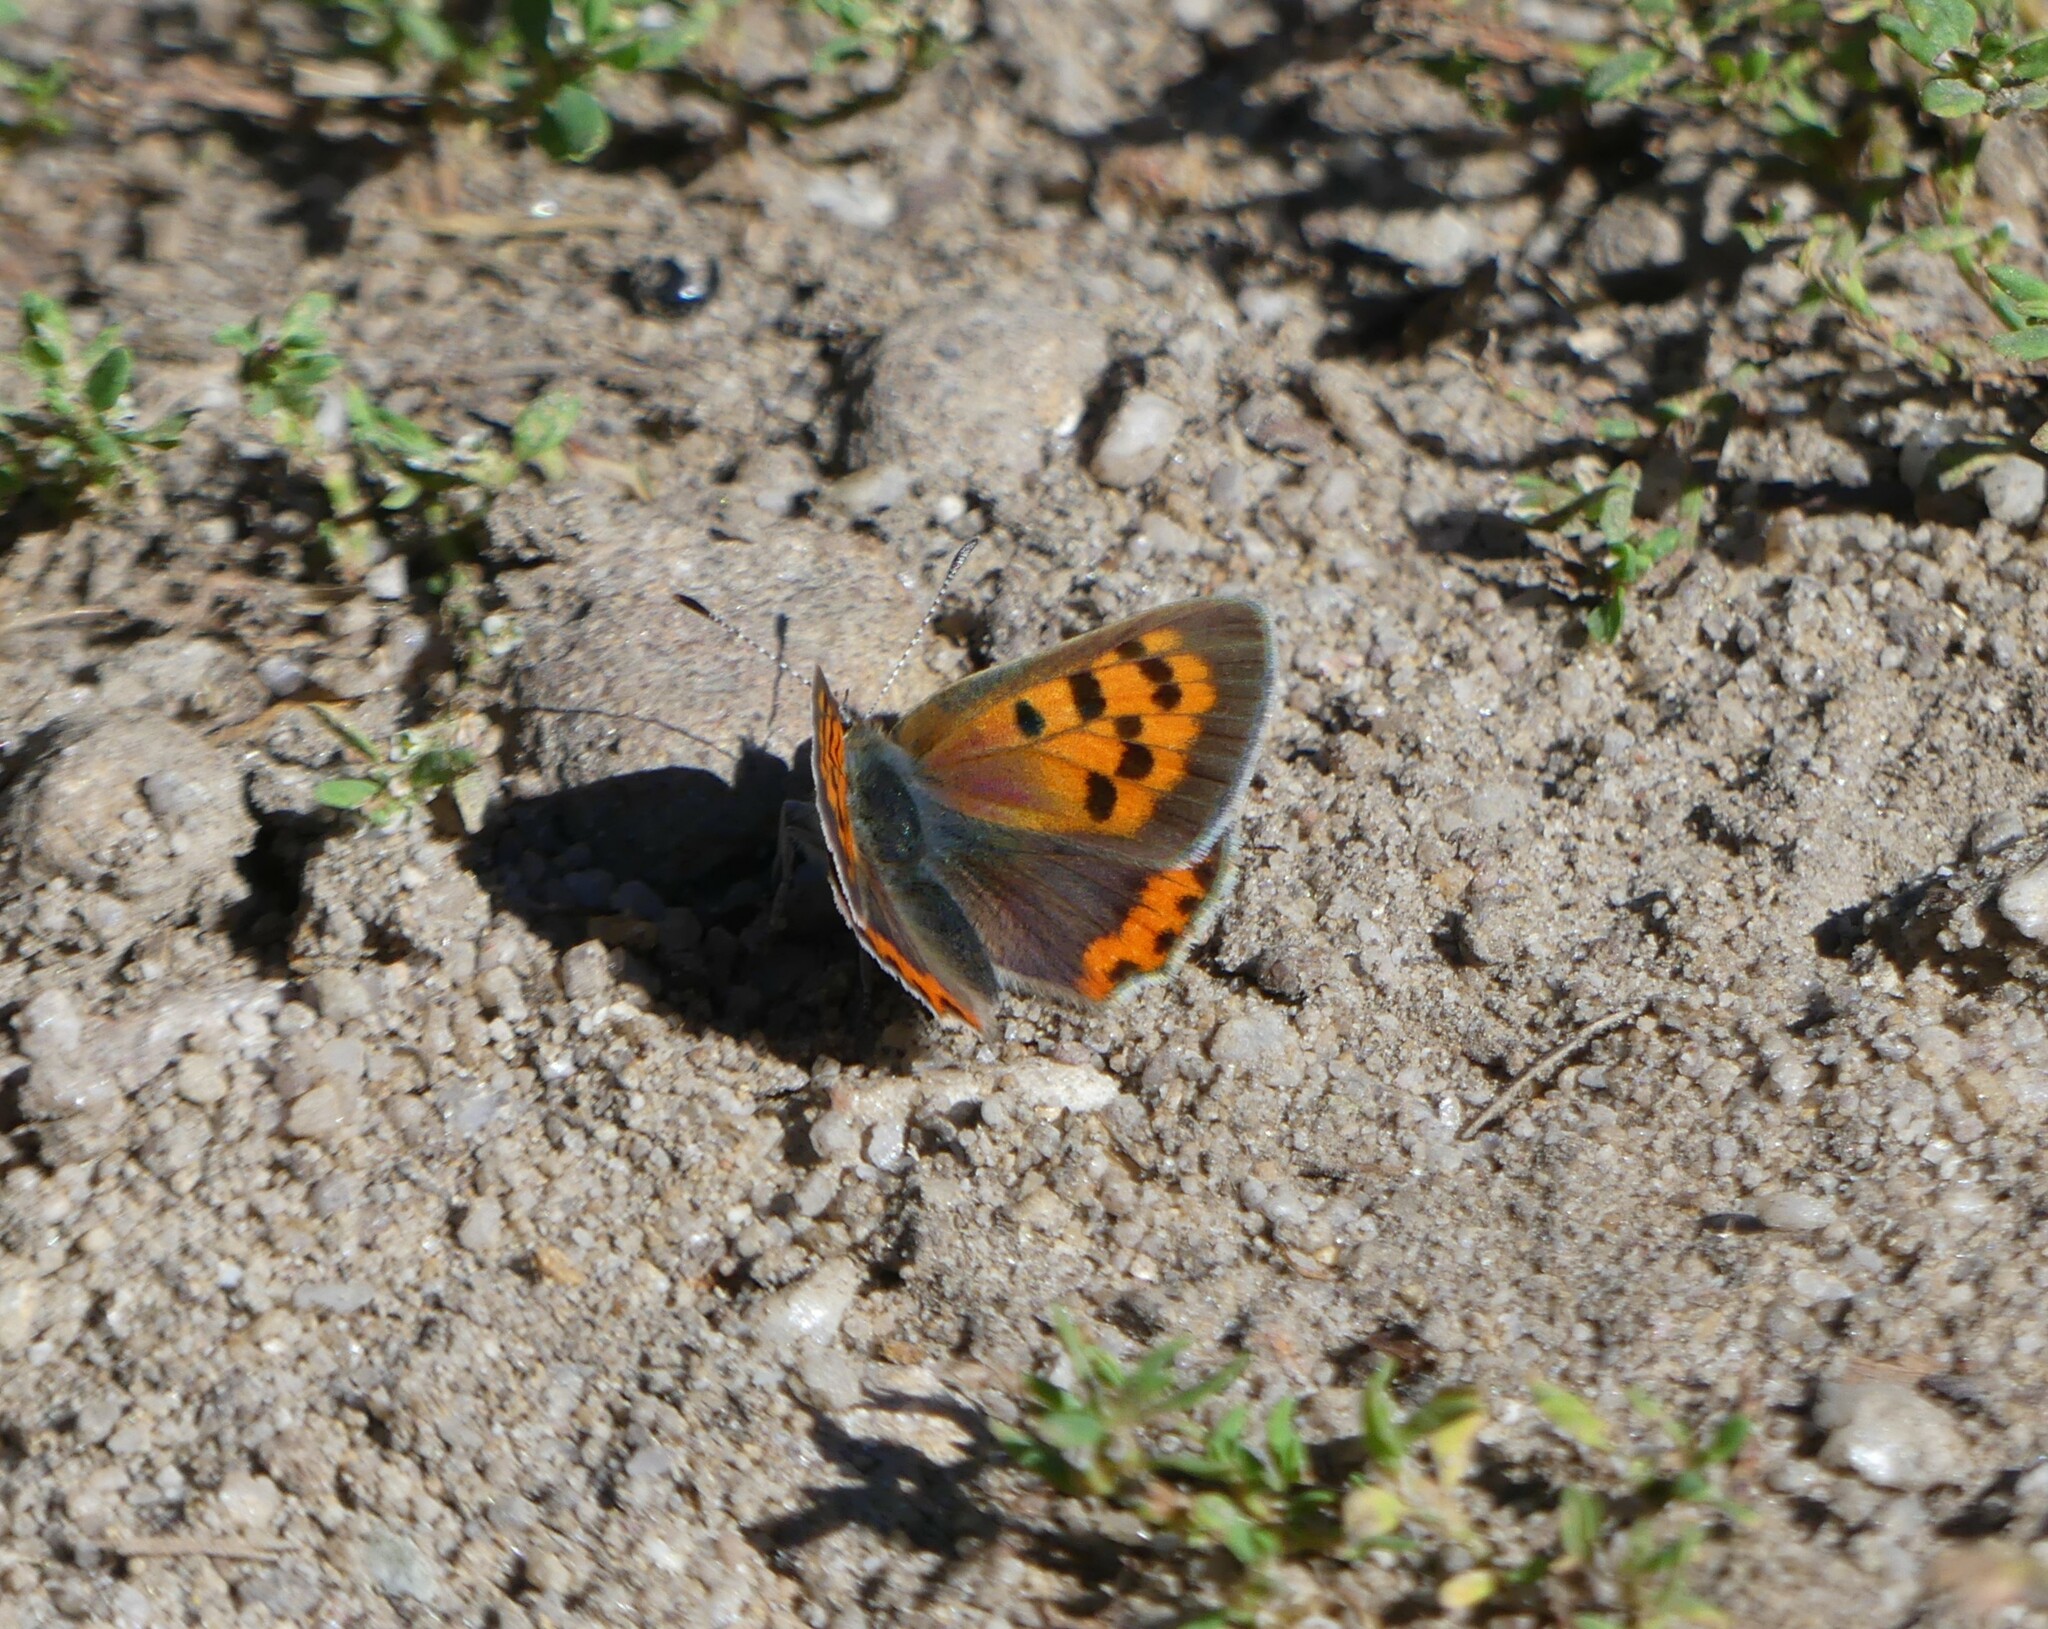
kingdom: Animalia
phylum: Arthropoda
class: Insecta
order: Lepidoptera
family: Lycaenidae
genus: Lycaena
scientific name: Lycaena hypophlaeas
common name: American copper
